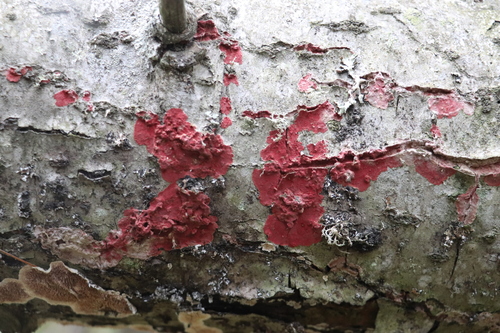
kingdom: Fungi
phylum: Basidiomycota
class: Agaricomycetes
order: Hymenochaetales
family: Hymenochaetaceae
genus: Hymenochaete
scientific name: Hymenochaete cruenta
